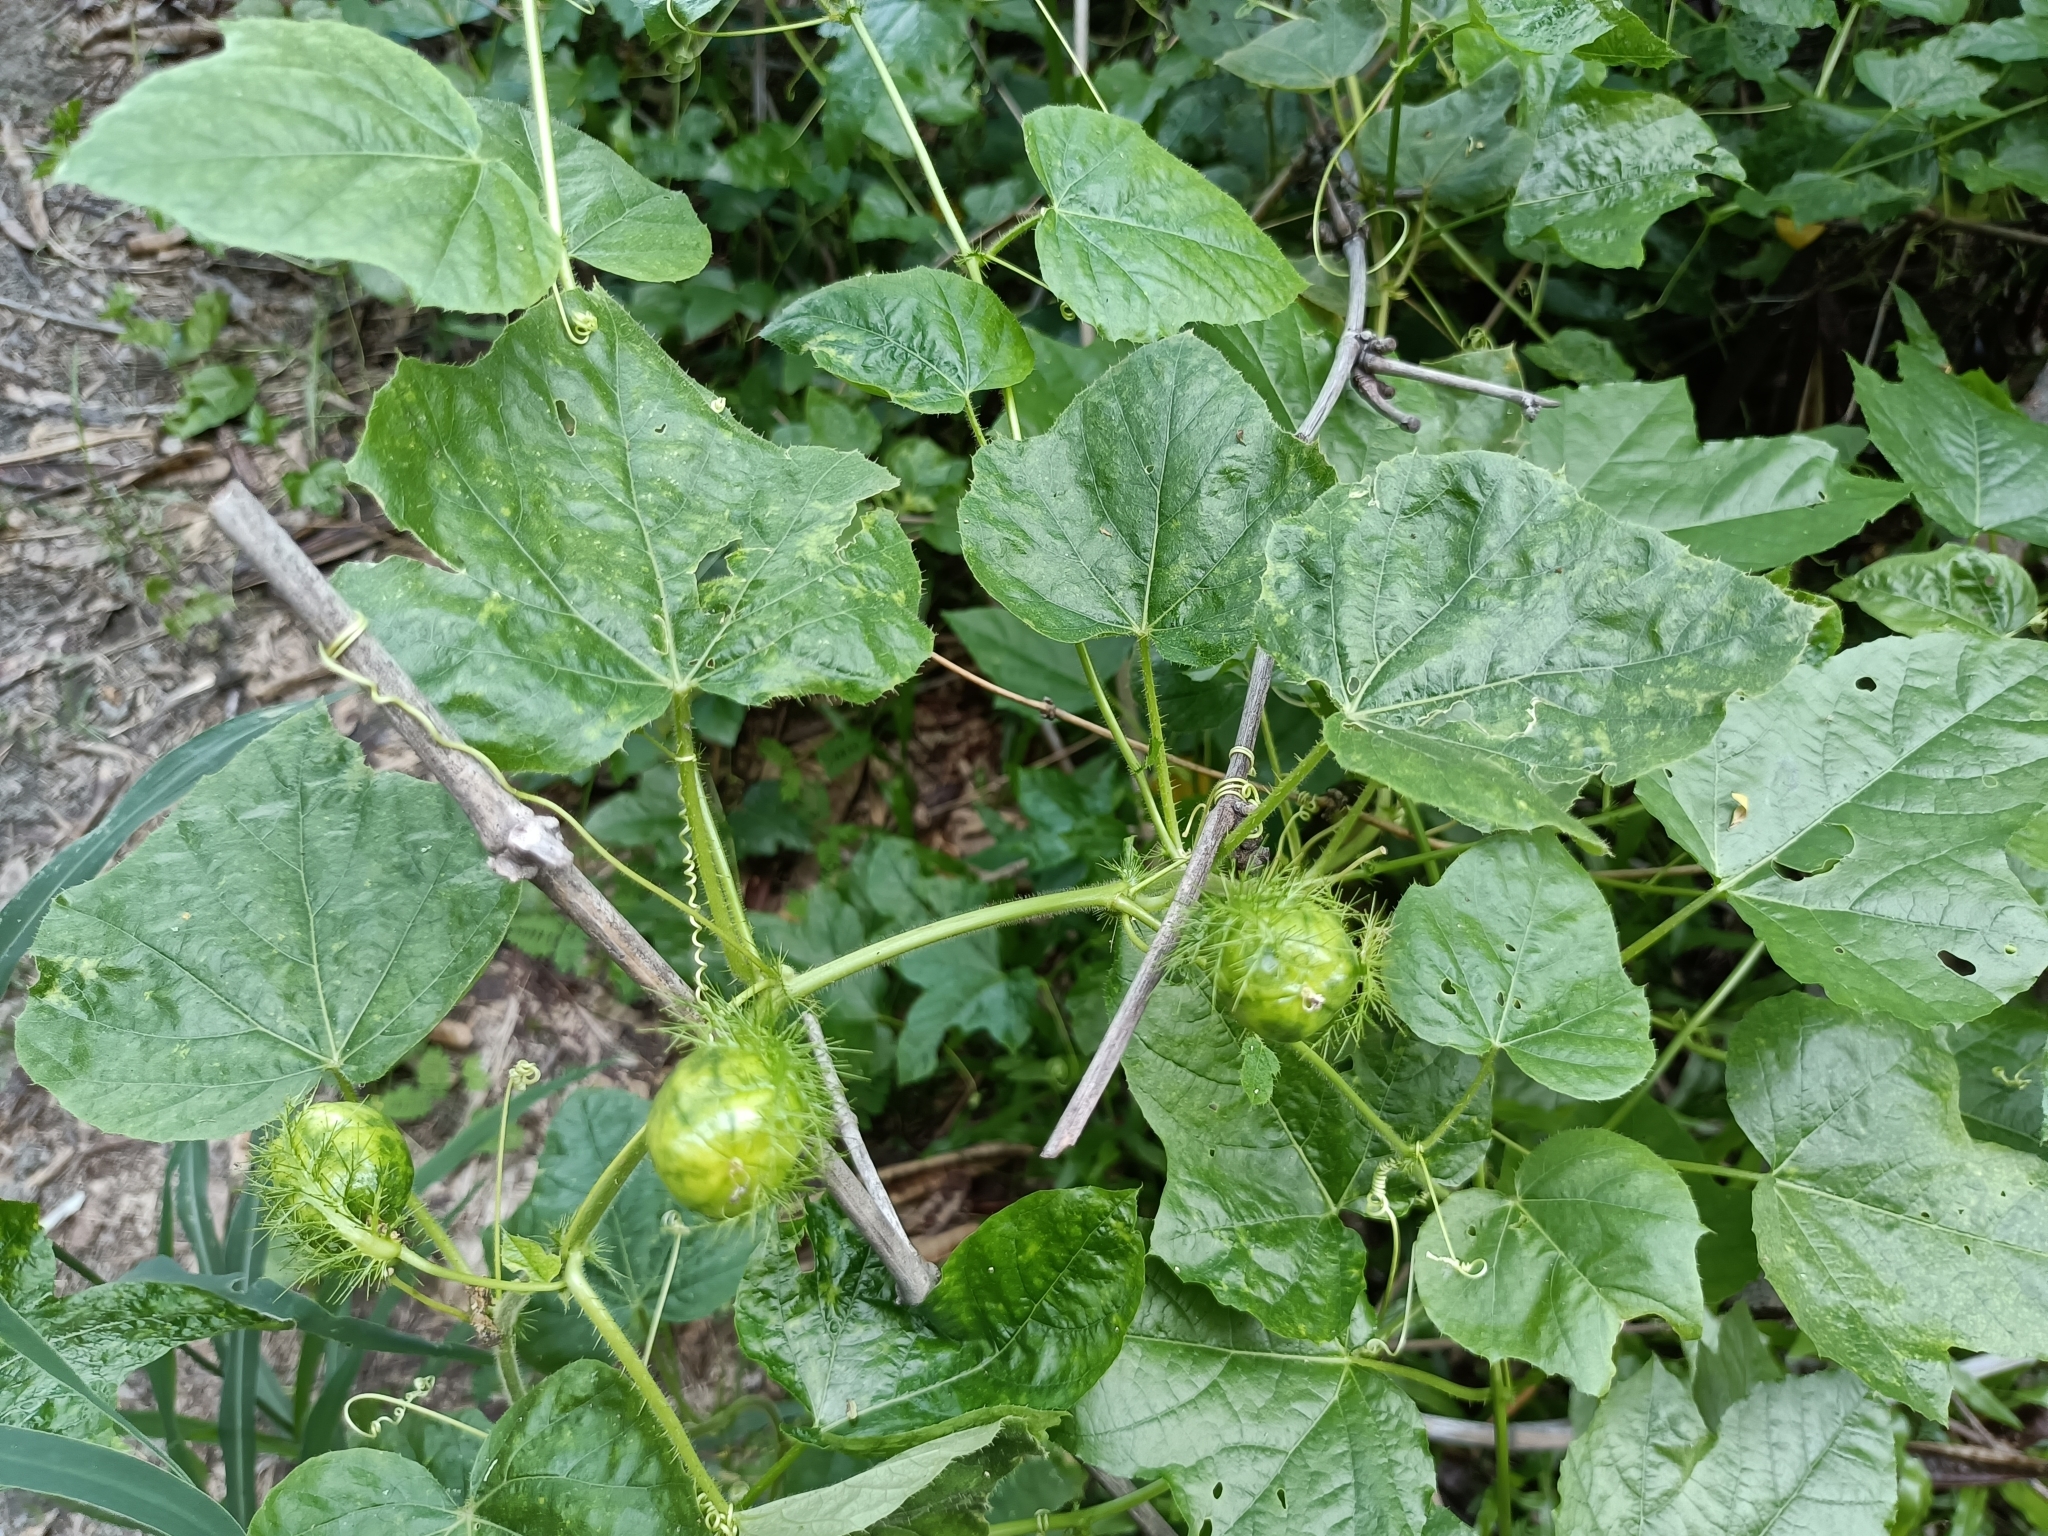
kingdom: Plantae
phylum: Tracheophyta
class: Magnoliopsida
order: Malpighiales
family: Passifloraceae
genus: Passiflora
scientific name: Passiflora vesicaria
